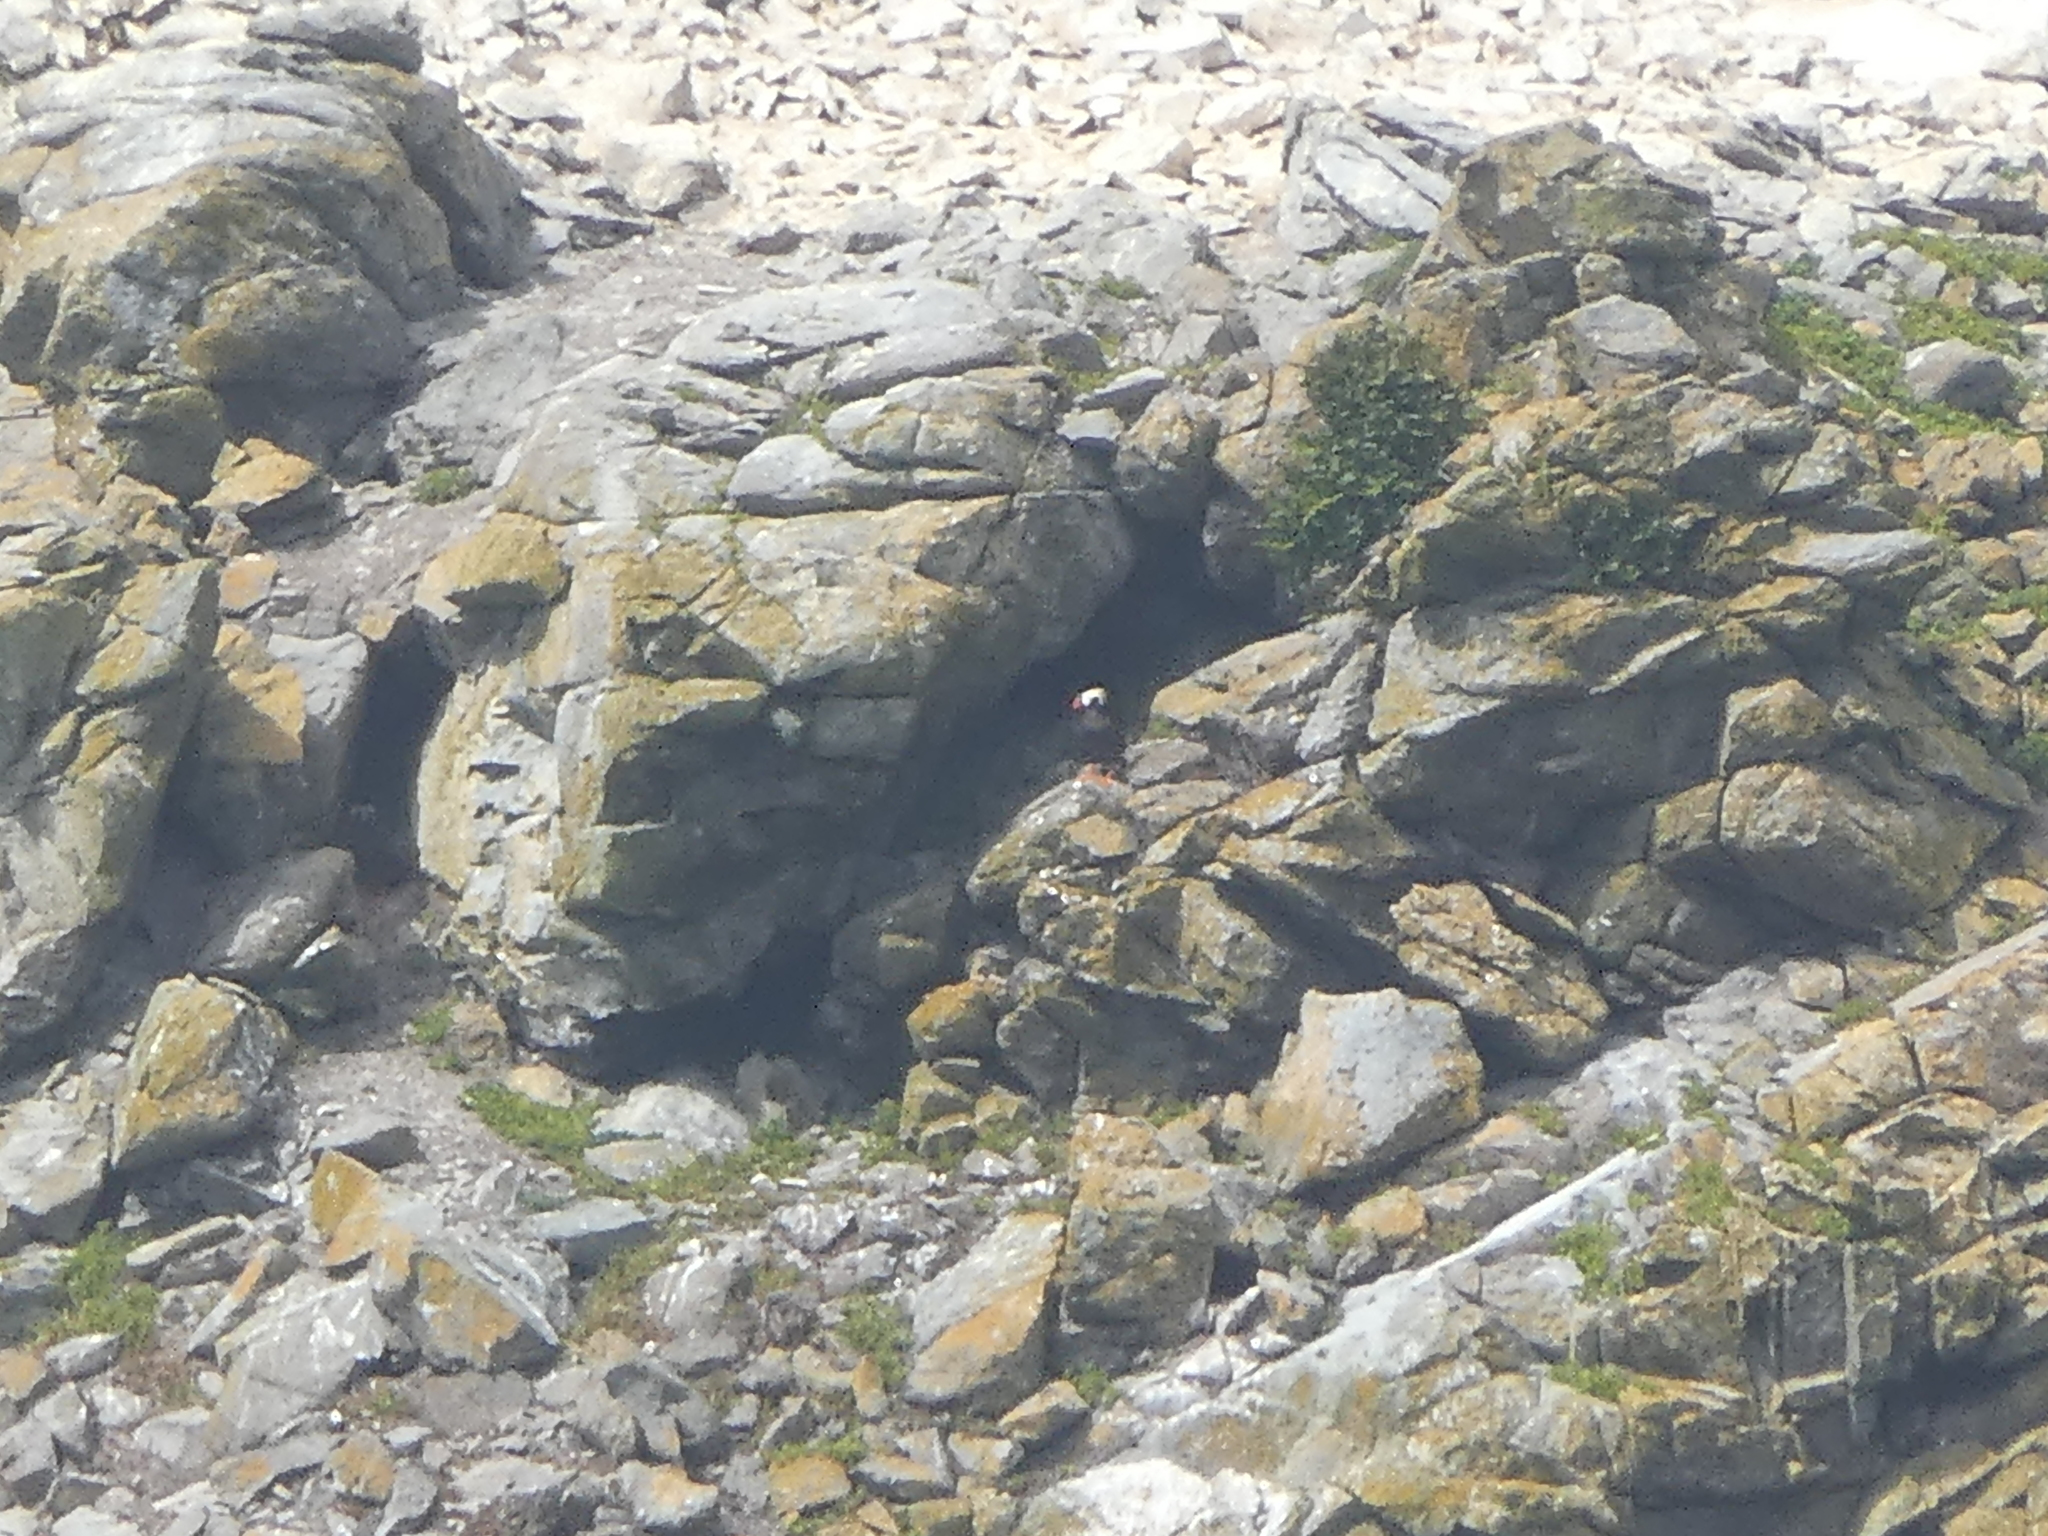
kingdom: Animalia
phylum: Chordata
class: Aves
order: Charadriiformes
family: Alcidae
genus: Fratercula
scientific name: Fratercula cirrhata
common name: Tufted puffin
